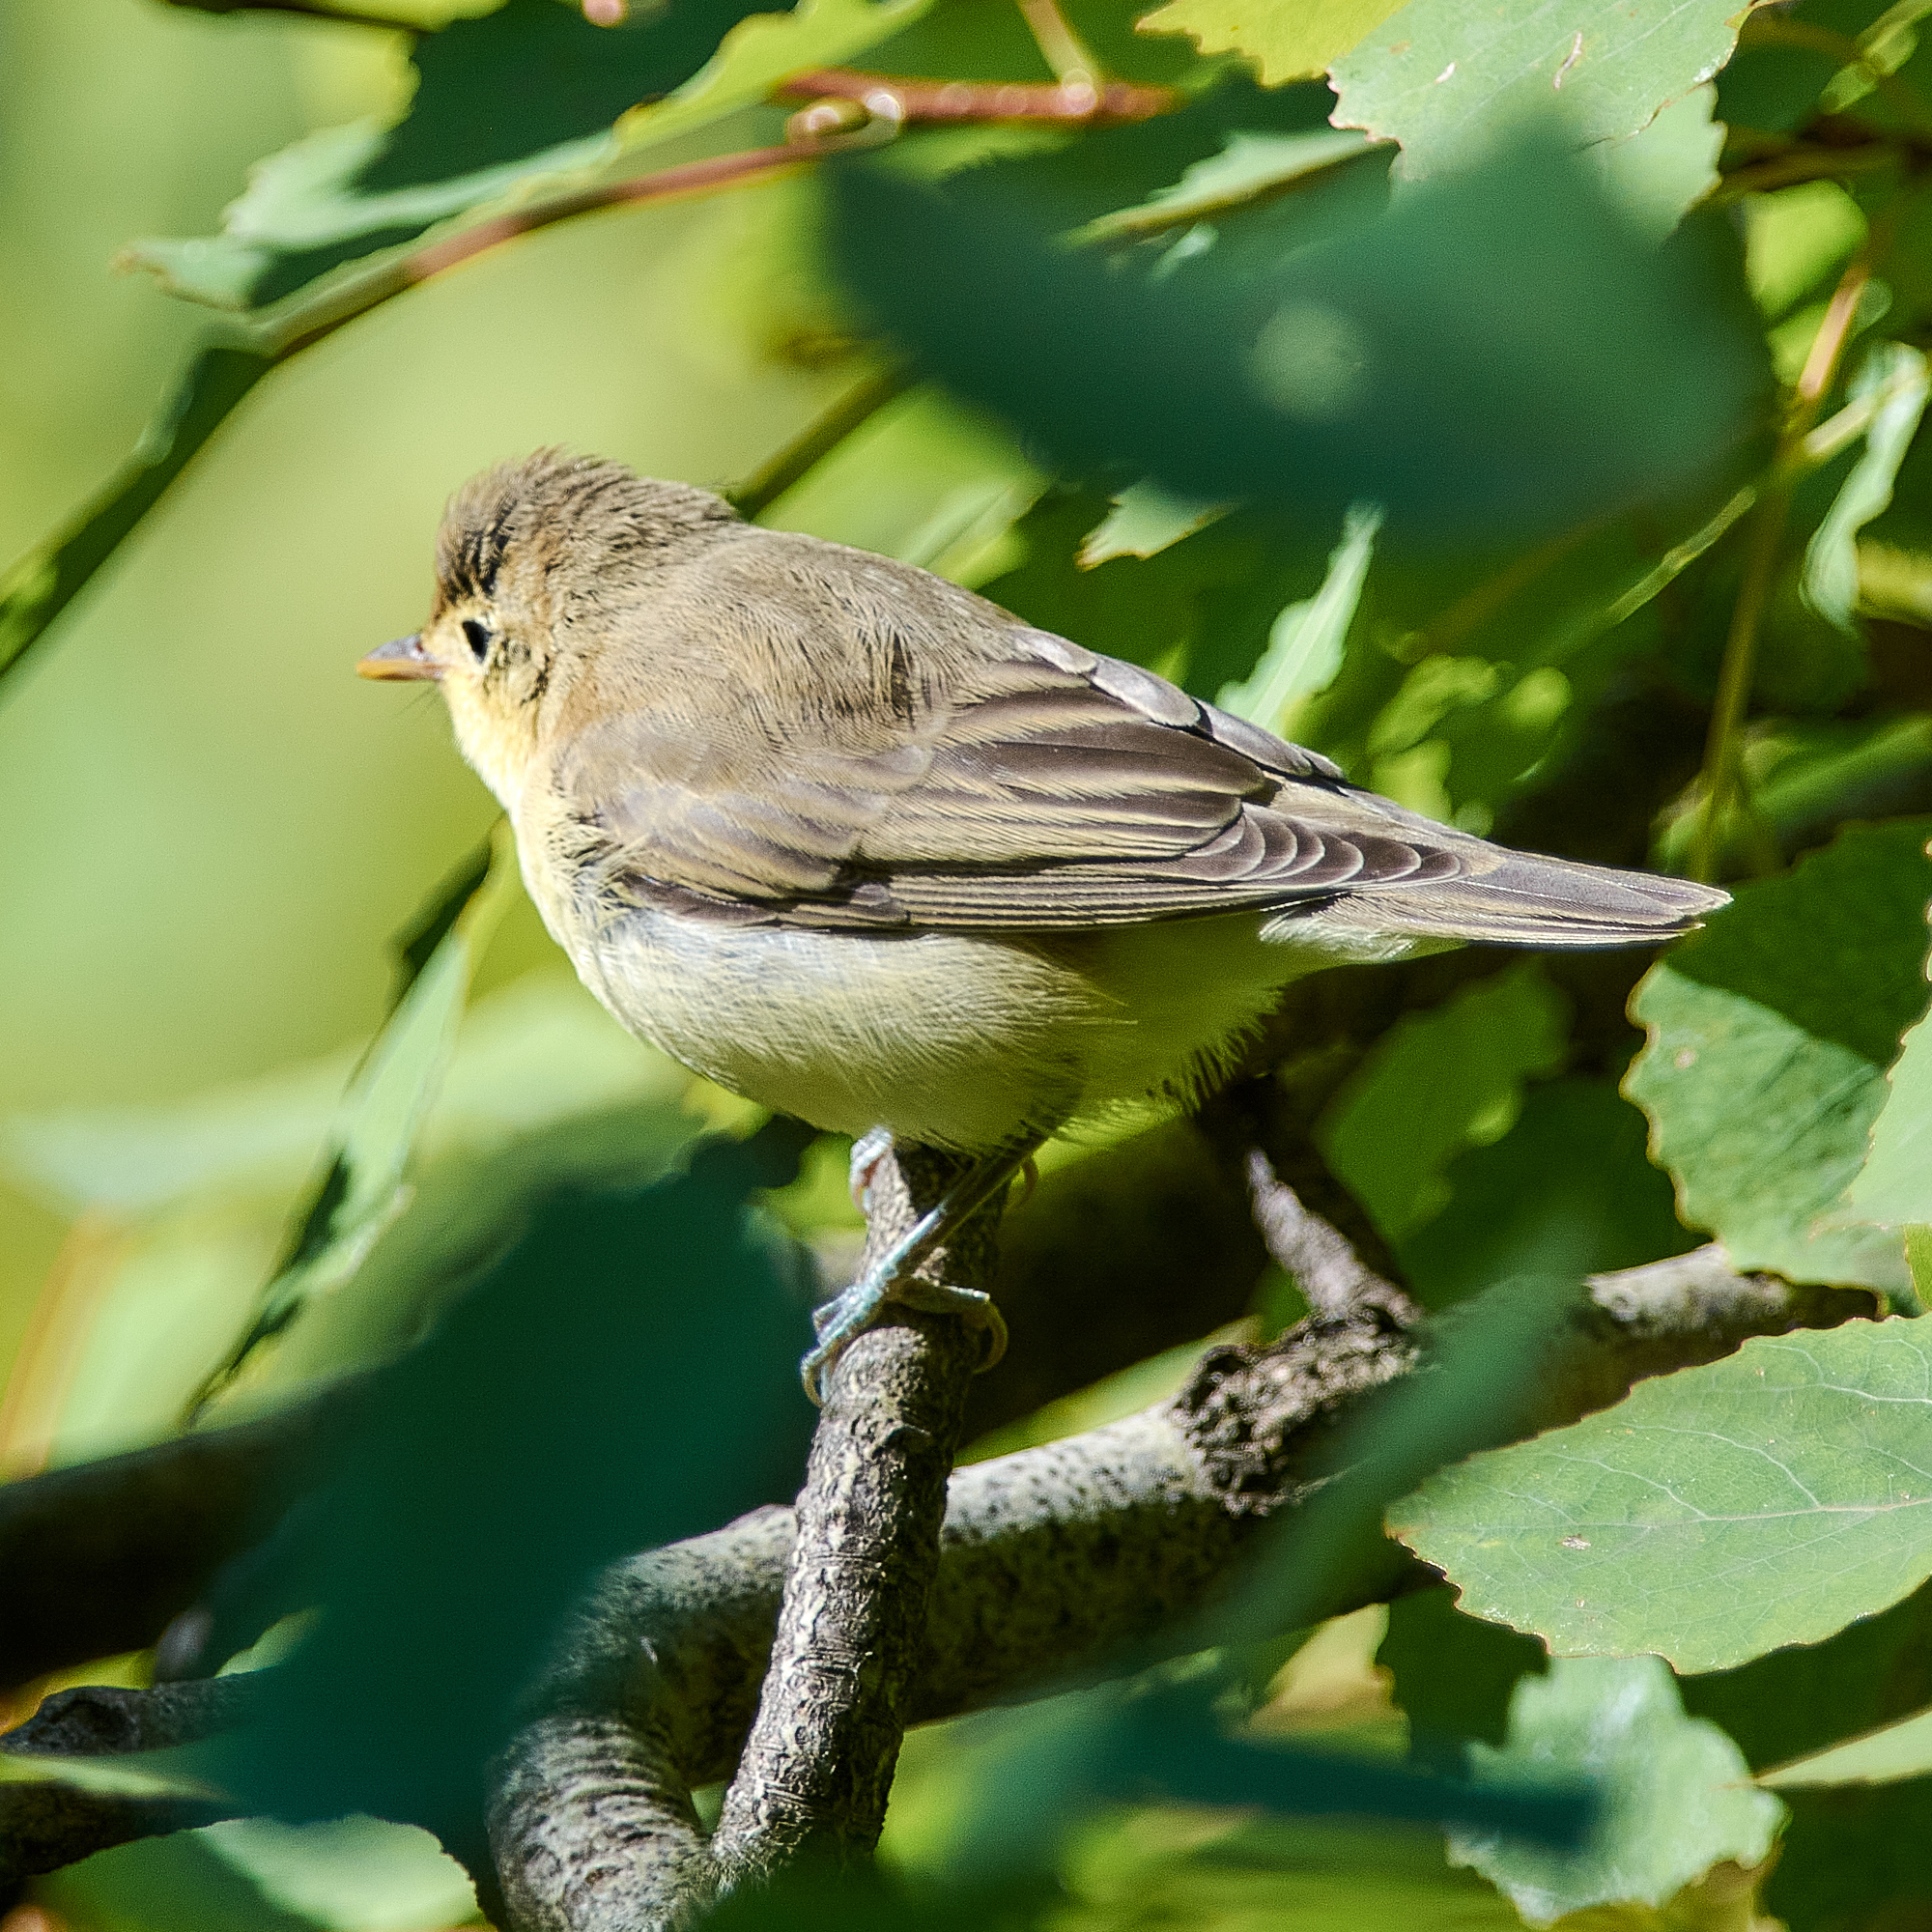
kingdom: Animalia
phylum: Chordata
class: Aves
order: Passeriformes
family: Acrocephalidae
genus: Hippolais
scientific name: Hippolais icterina
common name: Icterine warbler
